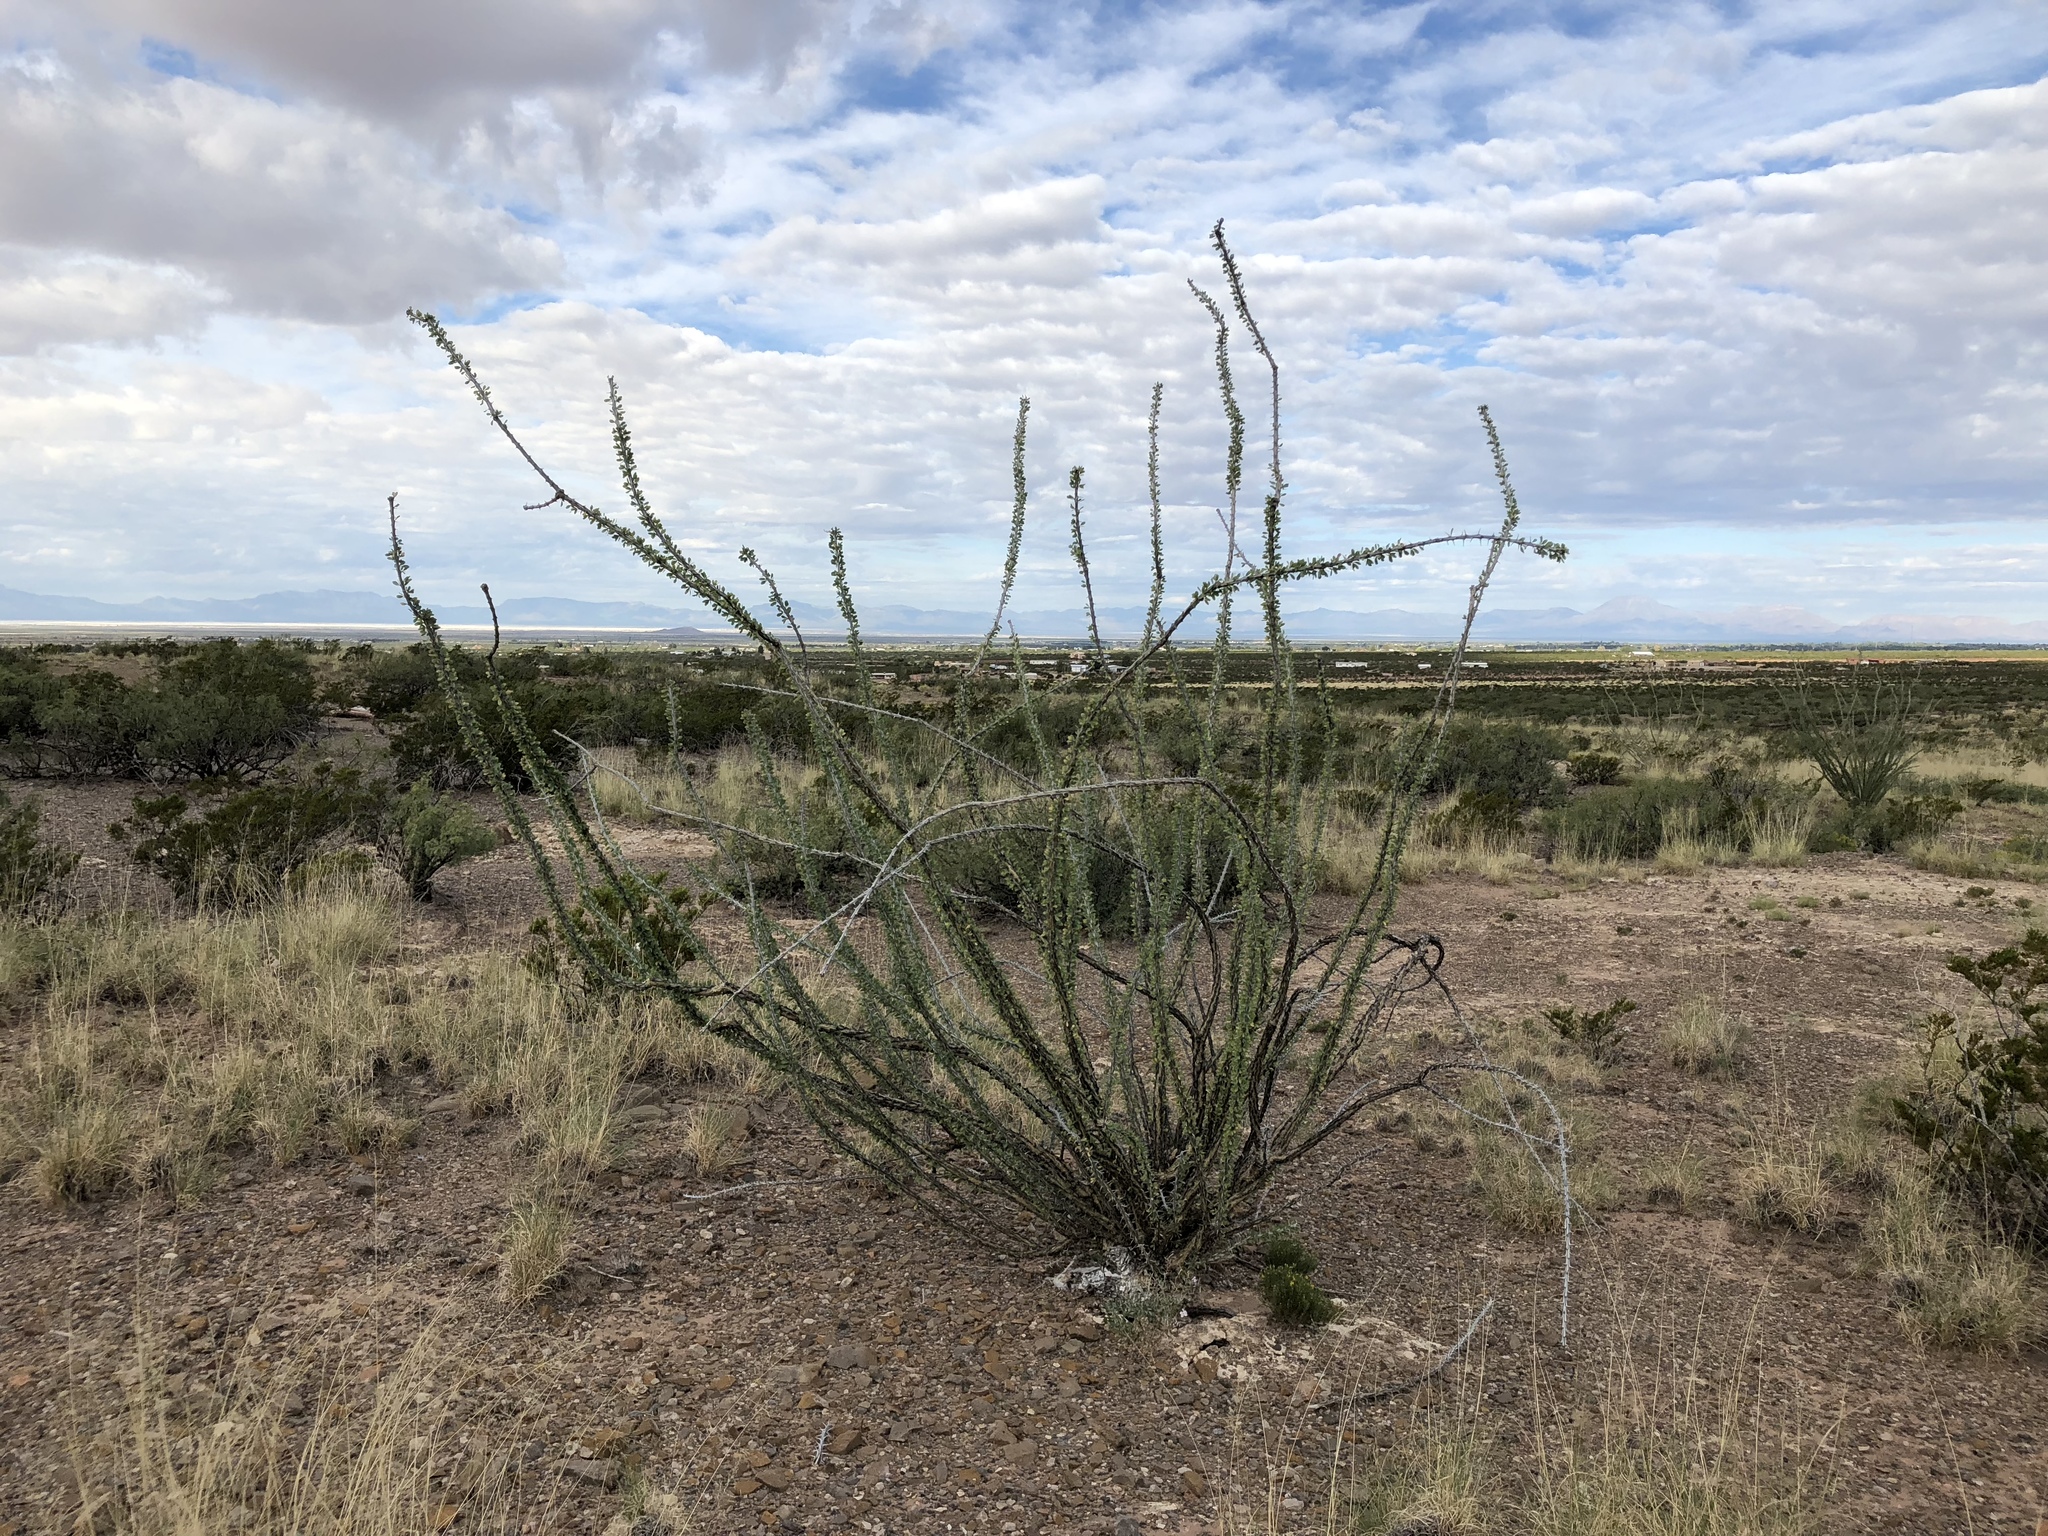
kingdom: Plantae
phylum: Tracheophyta
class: Magnoliopsida
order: Ericales
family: Fouquieriaceae
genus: Fouquieria
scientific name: Fouquieria splendens
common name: Vine-cactus
